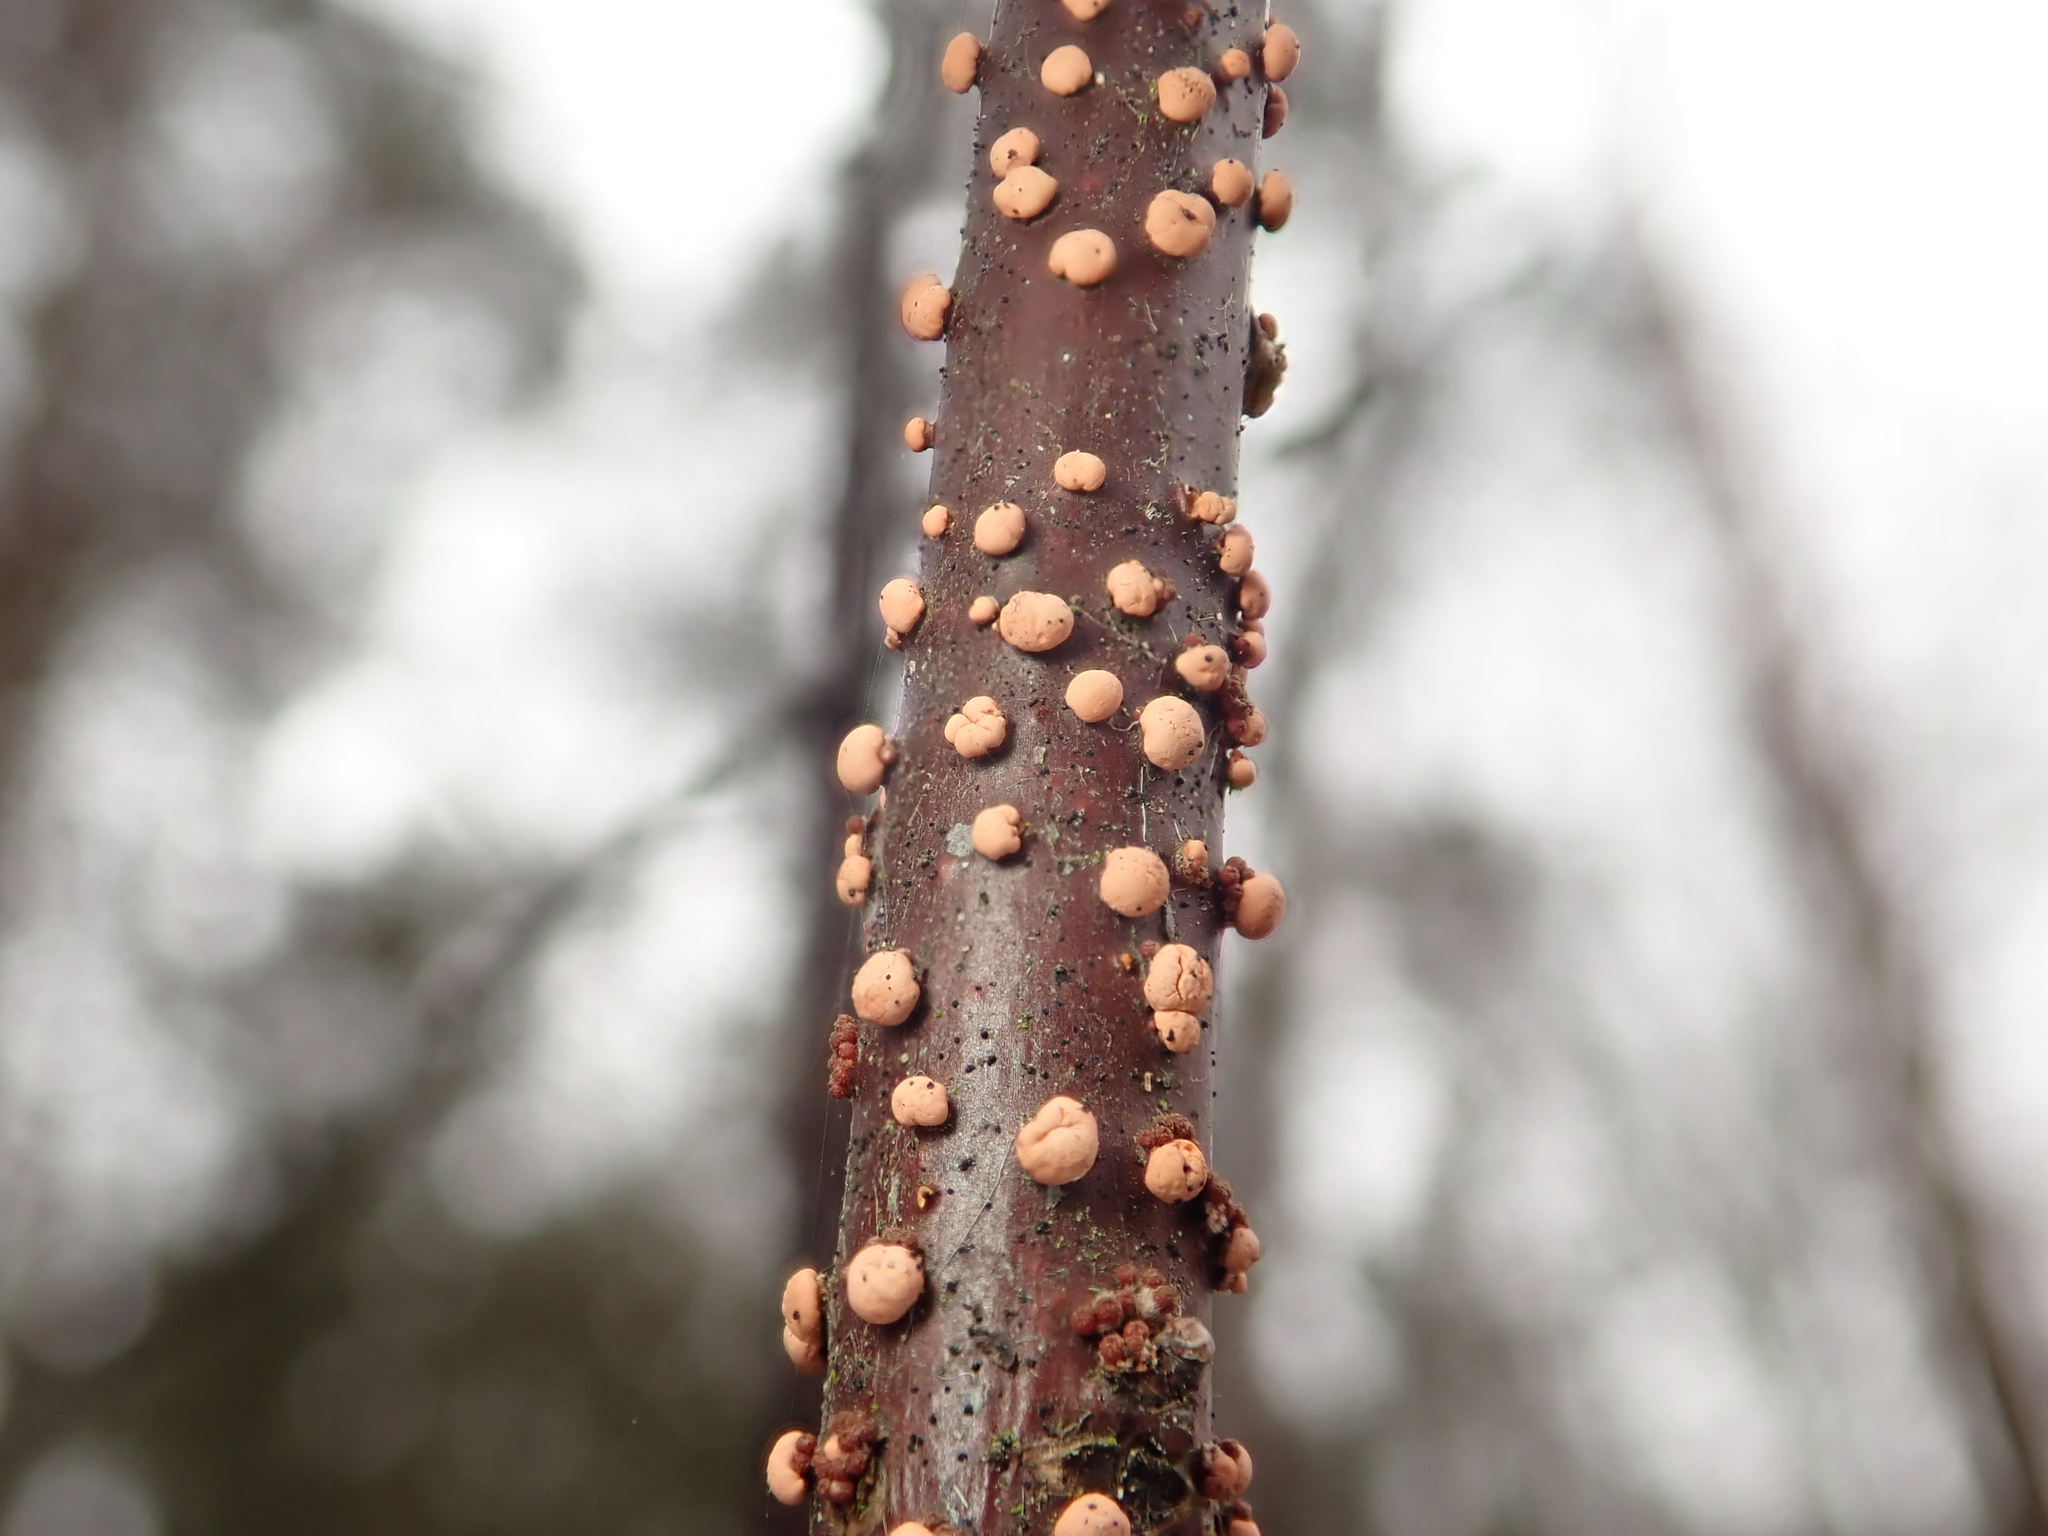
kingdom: Fungi
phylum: Ascomycota
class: Sordariomycetes
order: Hypocreales
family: Nectriaceae
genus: Nectria
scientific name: Nectria cinnabarina
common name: Coral spot
